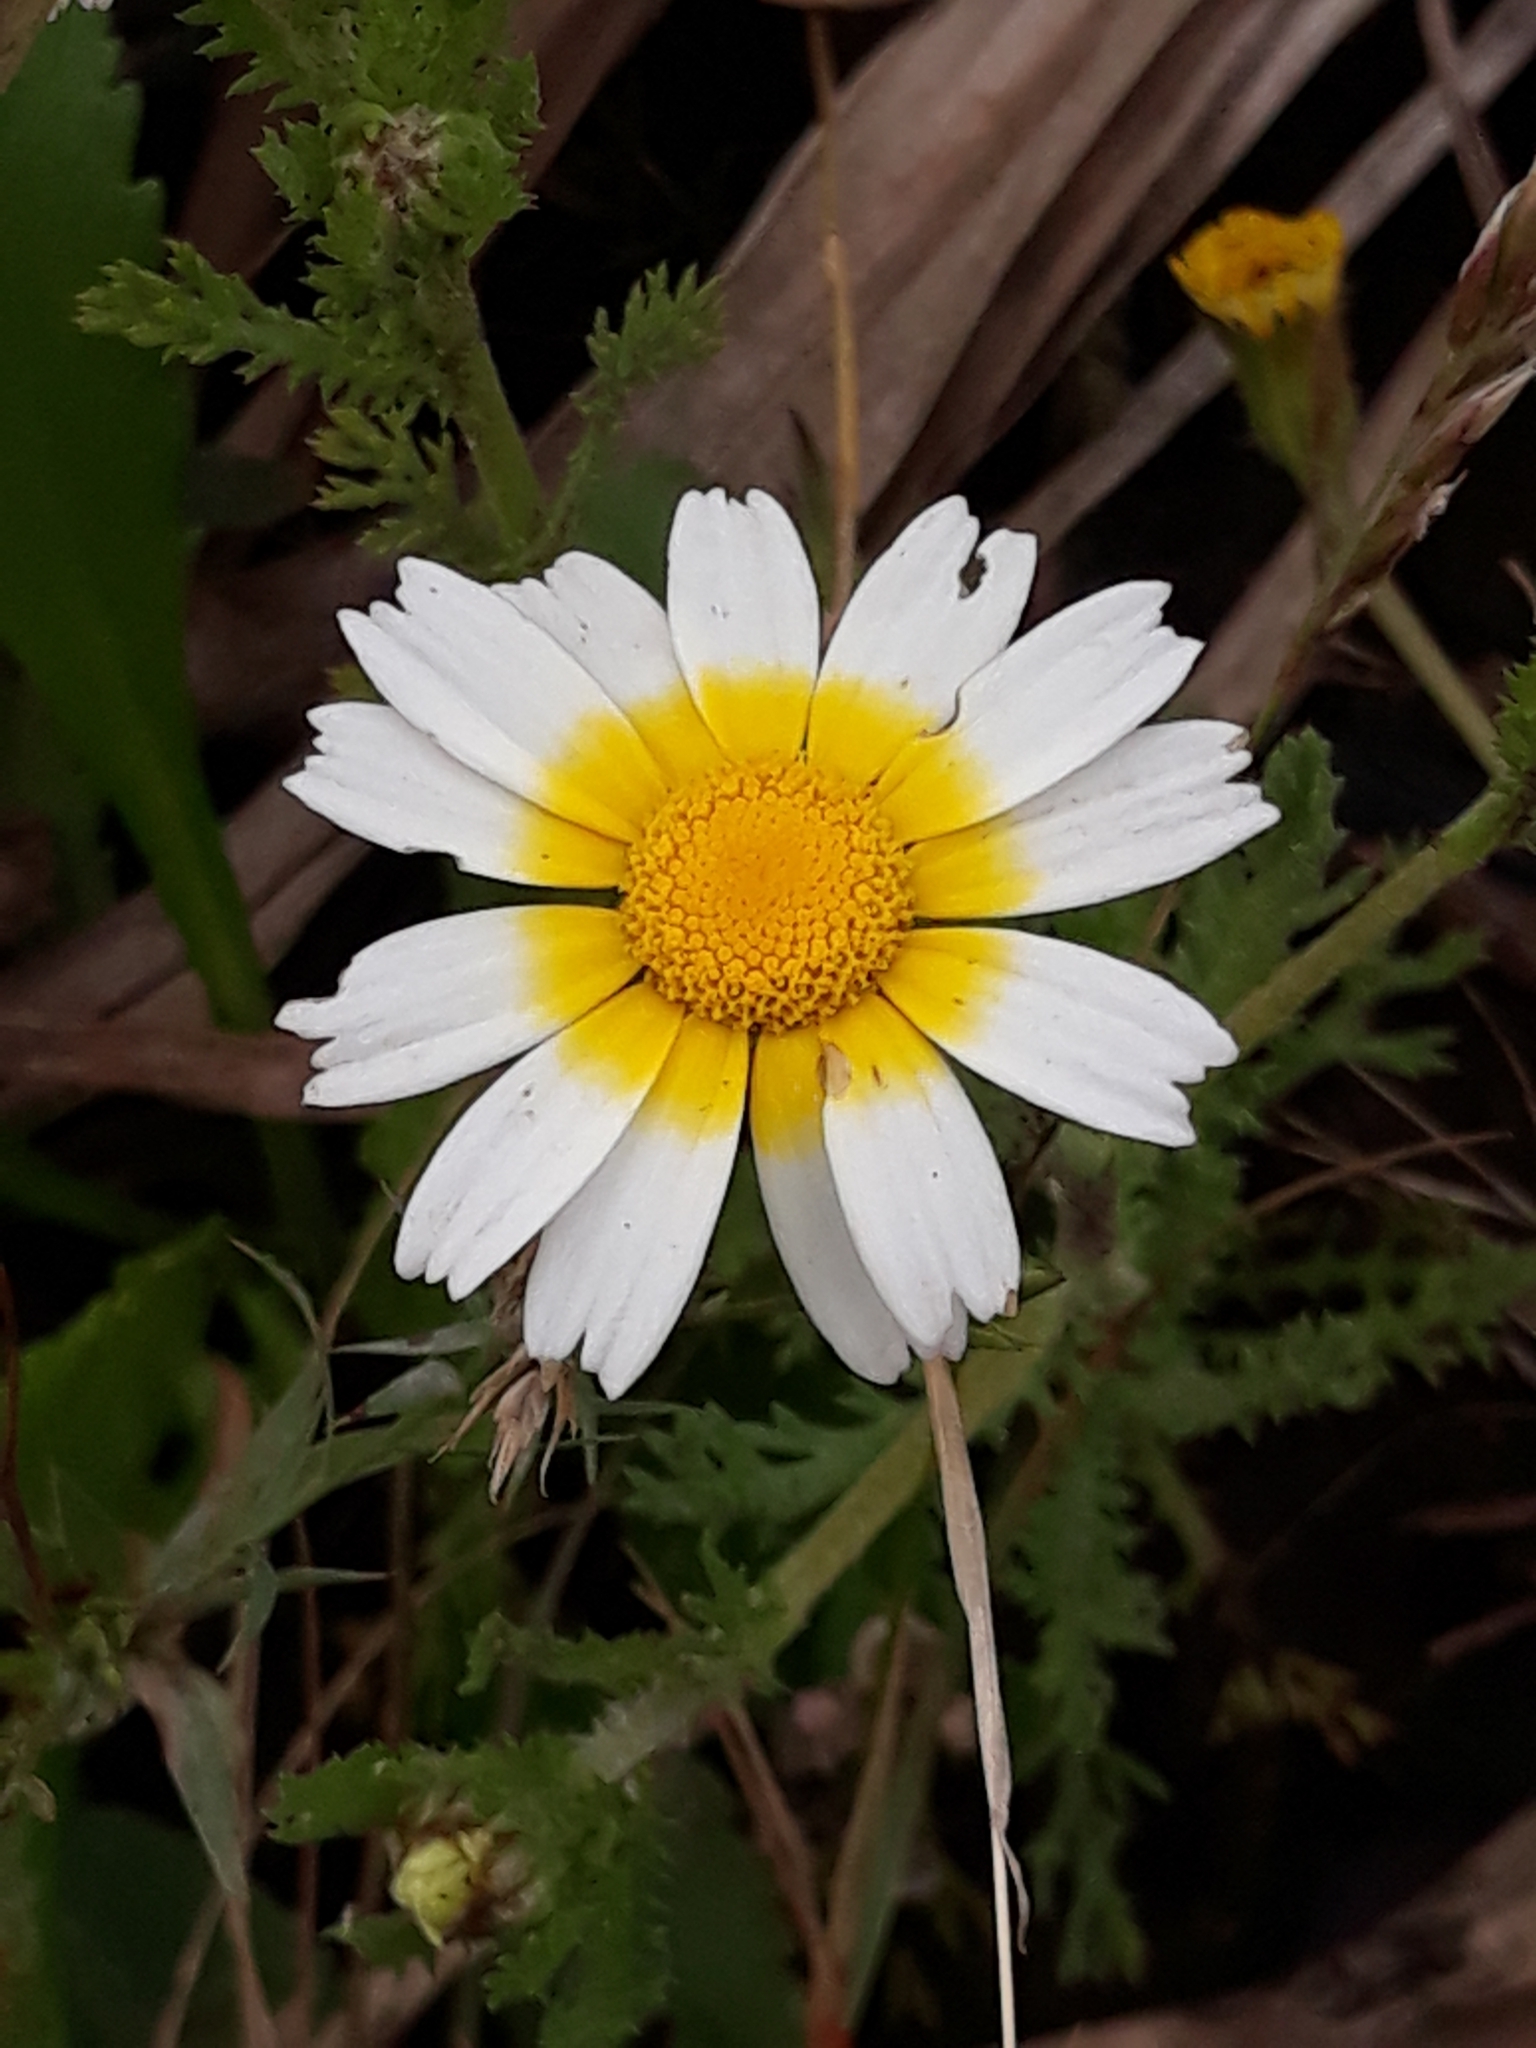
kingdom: Plantae
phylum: Tracheophyta
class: Magnoliopsida
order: Asterales
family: Asteraceae
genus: Cladanthus
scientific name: Cladanthus mixtus
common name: Weedy dogfennel
